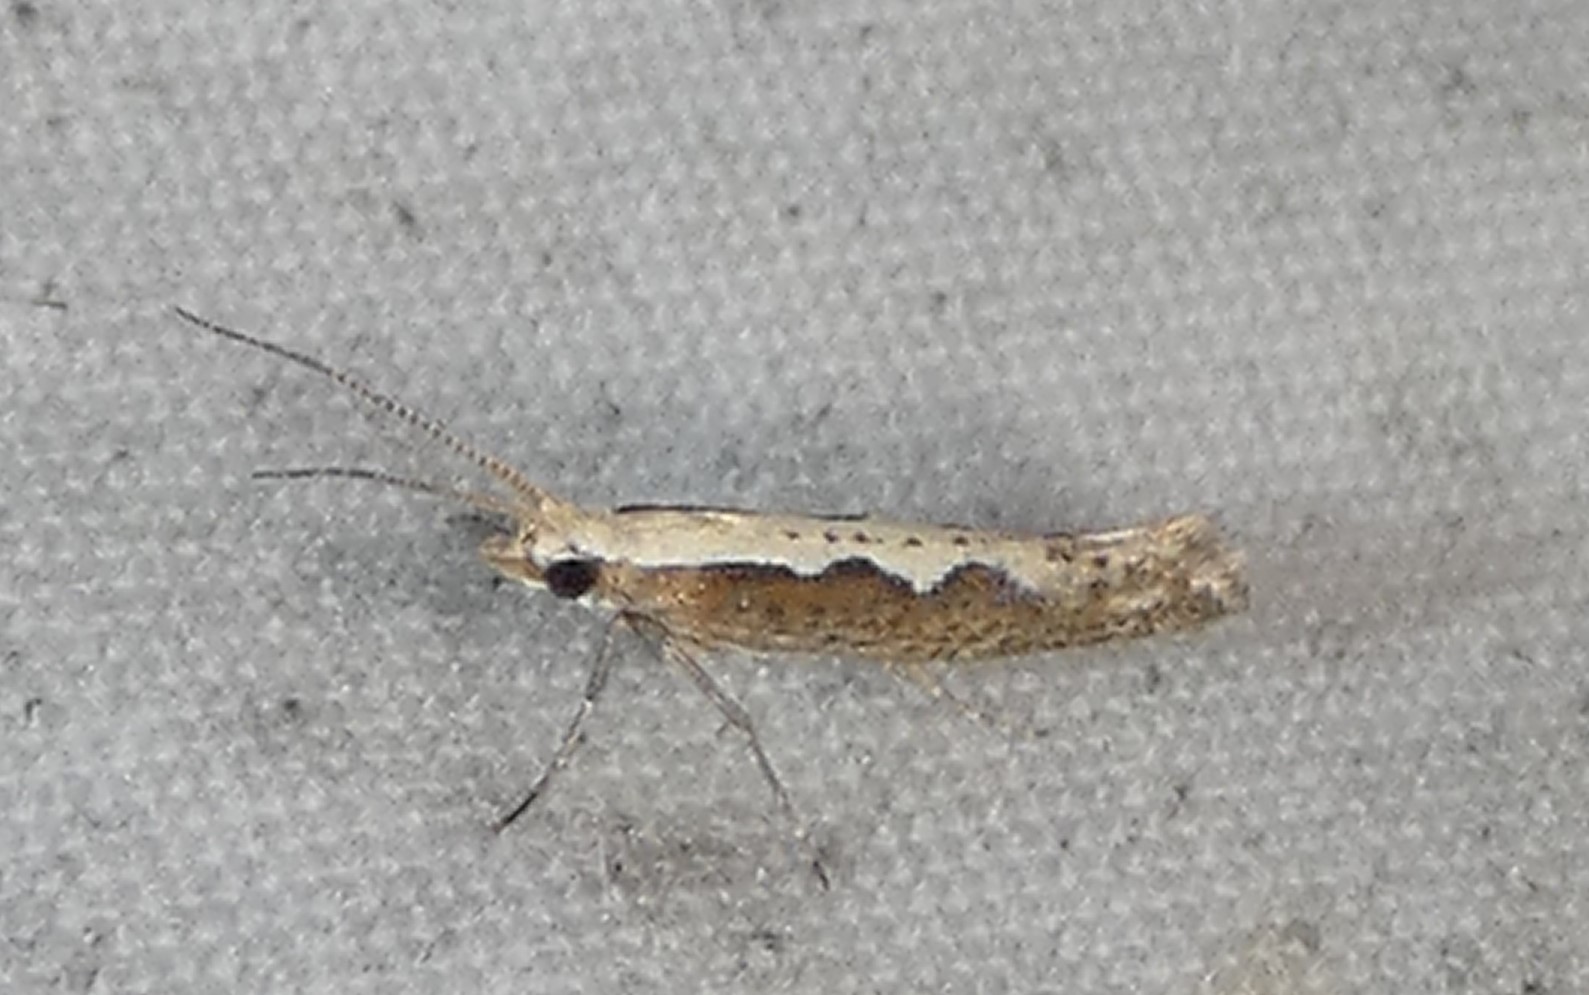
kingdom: Animalia
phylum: Arthropoda
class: Insecta
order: Lepidoptera
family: Plutellidae
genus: Plutella
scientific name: Plutella xylostella
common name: Diamond-back moth
